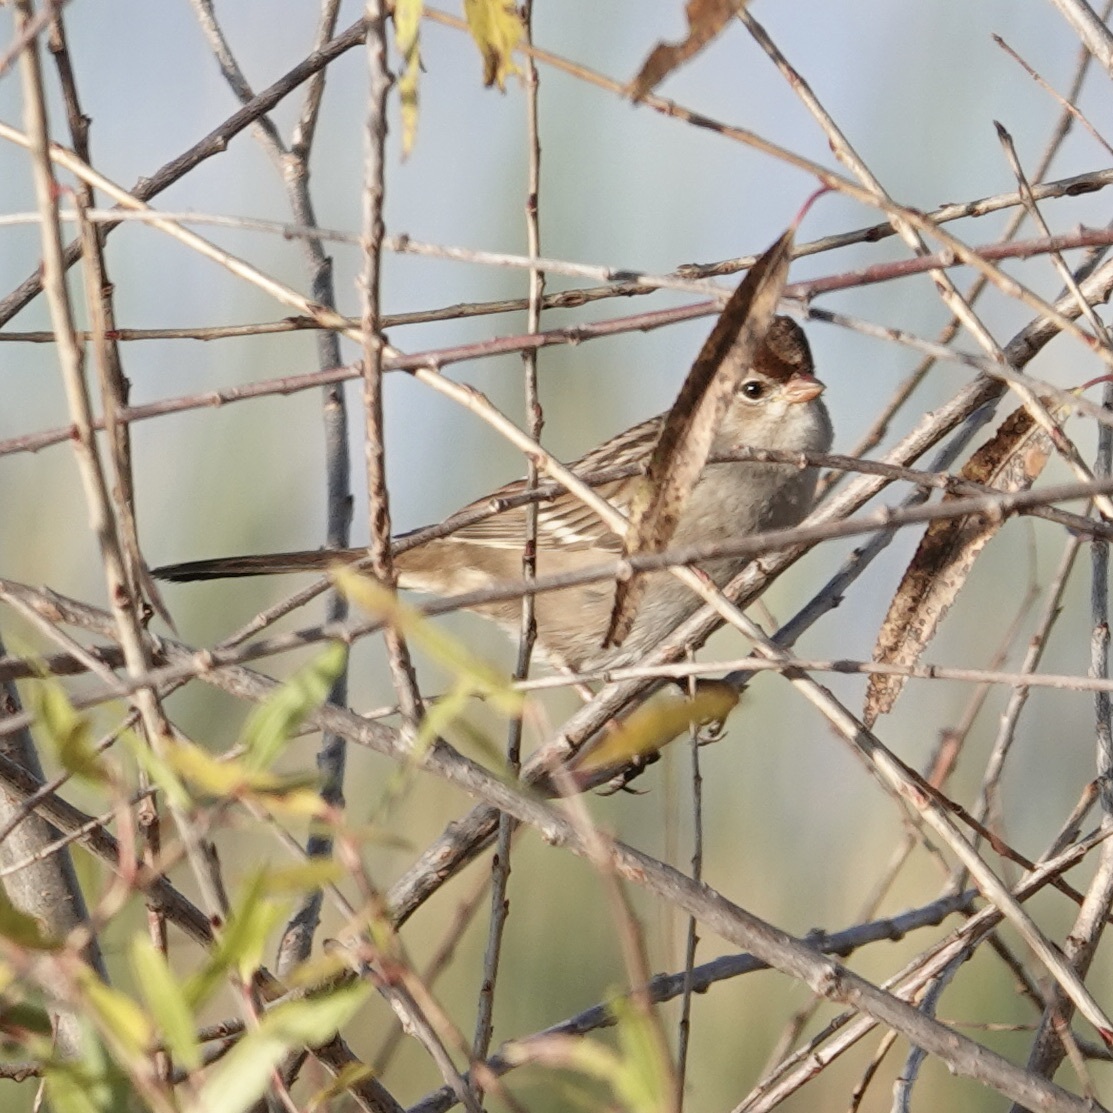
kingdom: Animalia
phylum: Chordata
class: Aves
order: Passeriformes
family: Passerellidae
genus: Zonotrichia
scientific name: Zonotrichia leucophrys
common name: White-crowned sparrow
